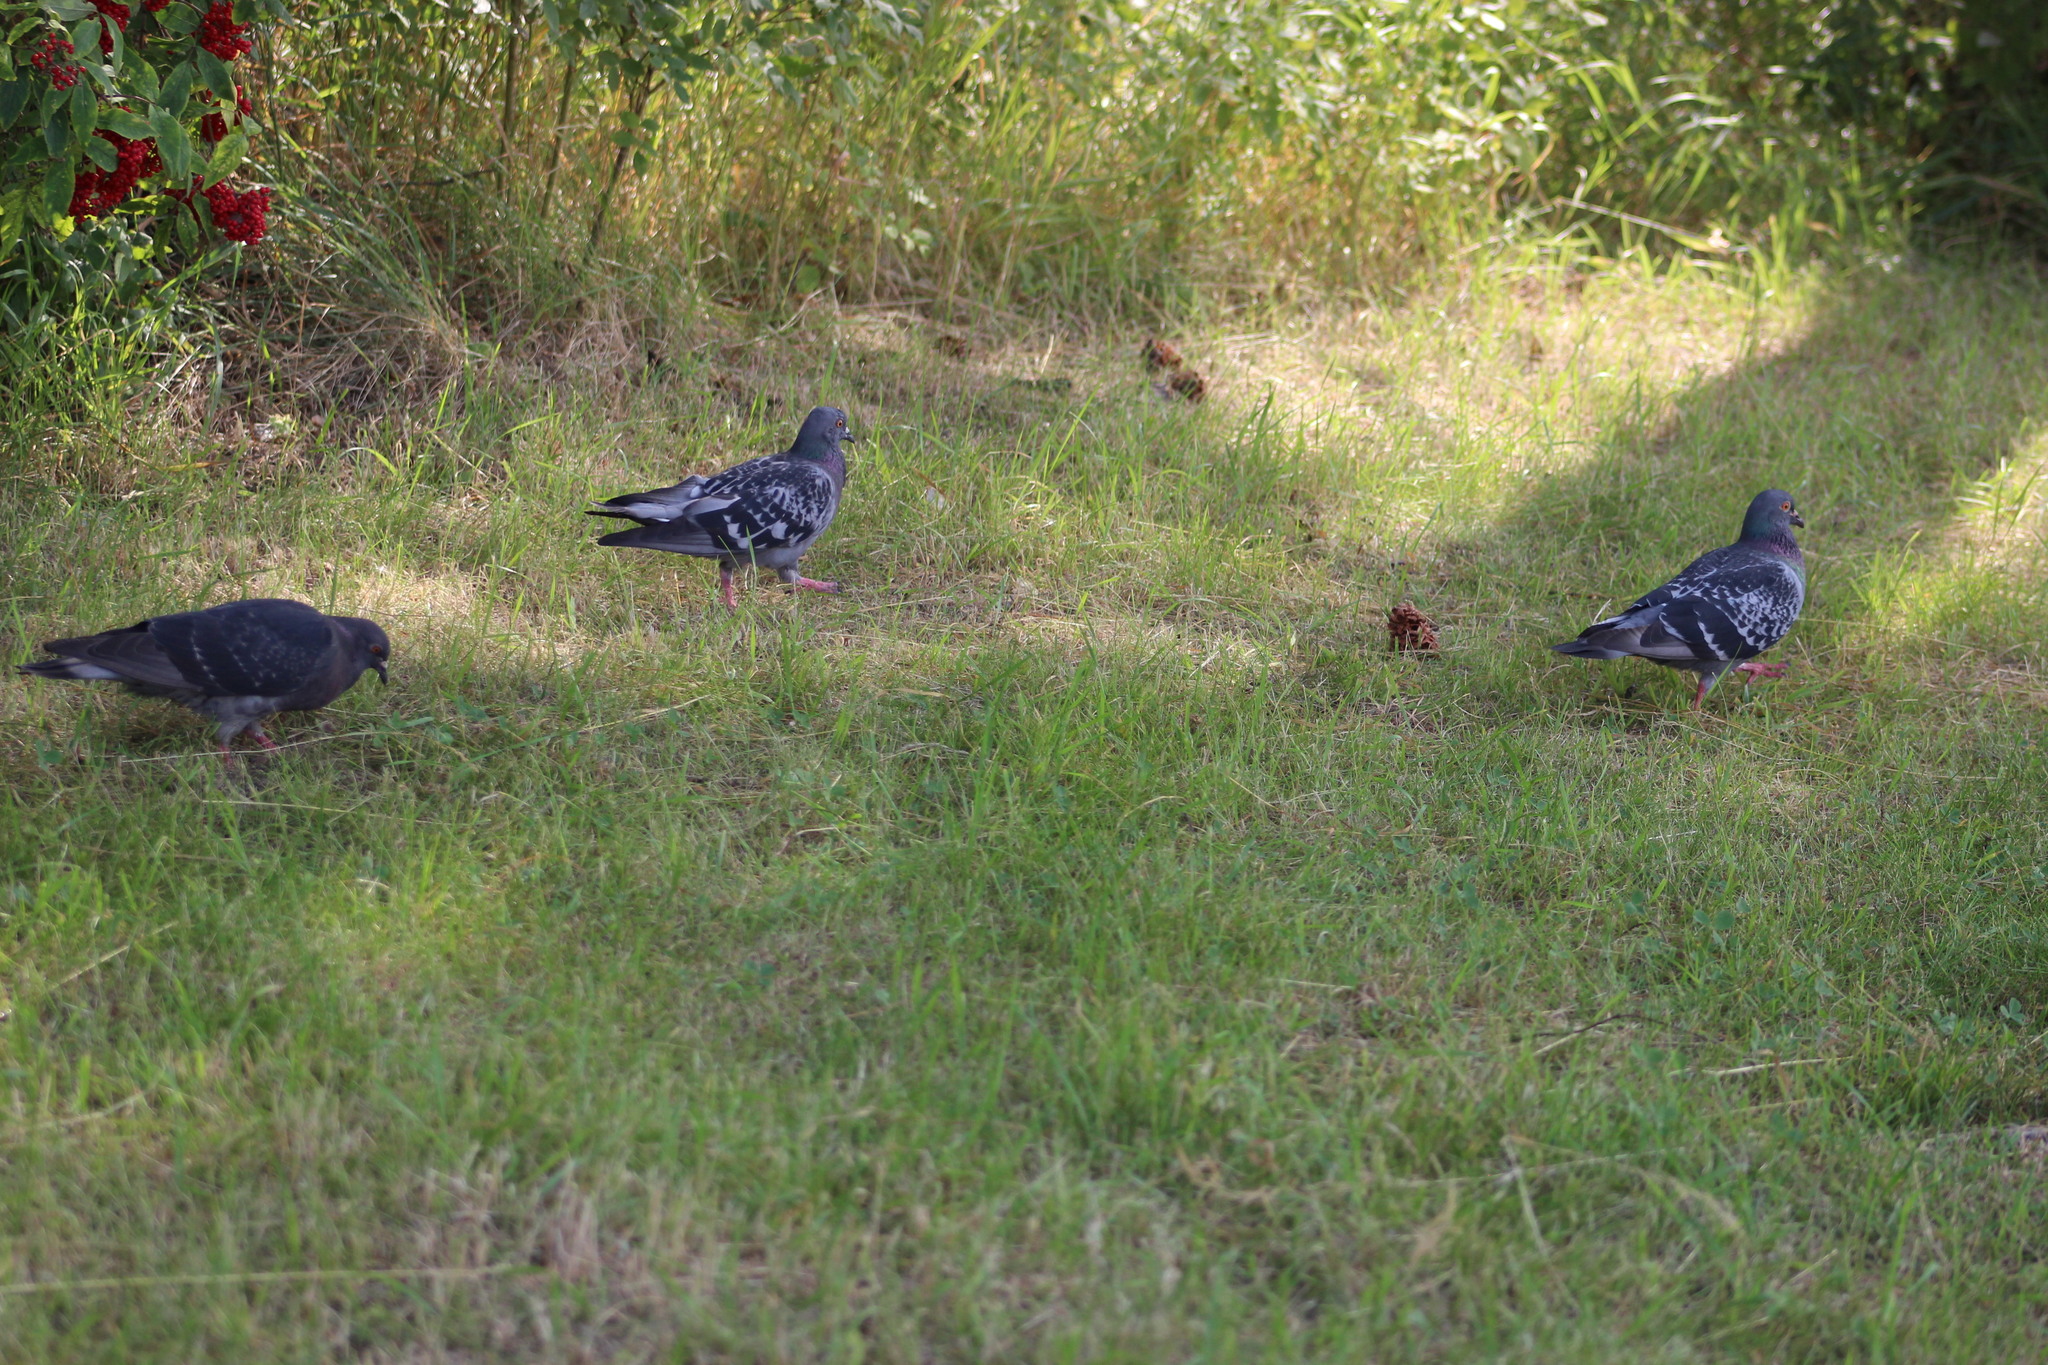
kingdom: Animalia
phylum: Chordata
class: Aves
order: Columbiformes
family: Columbidae
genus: Columba
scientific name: Columba livia
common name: Rock pigeon
